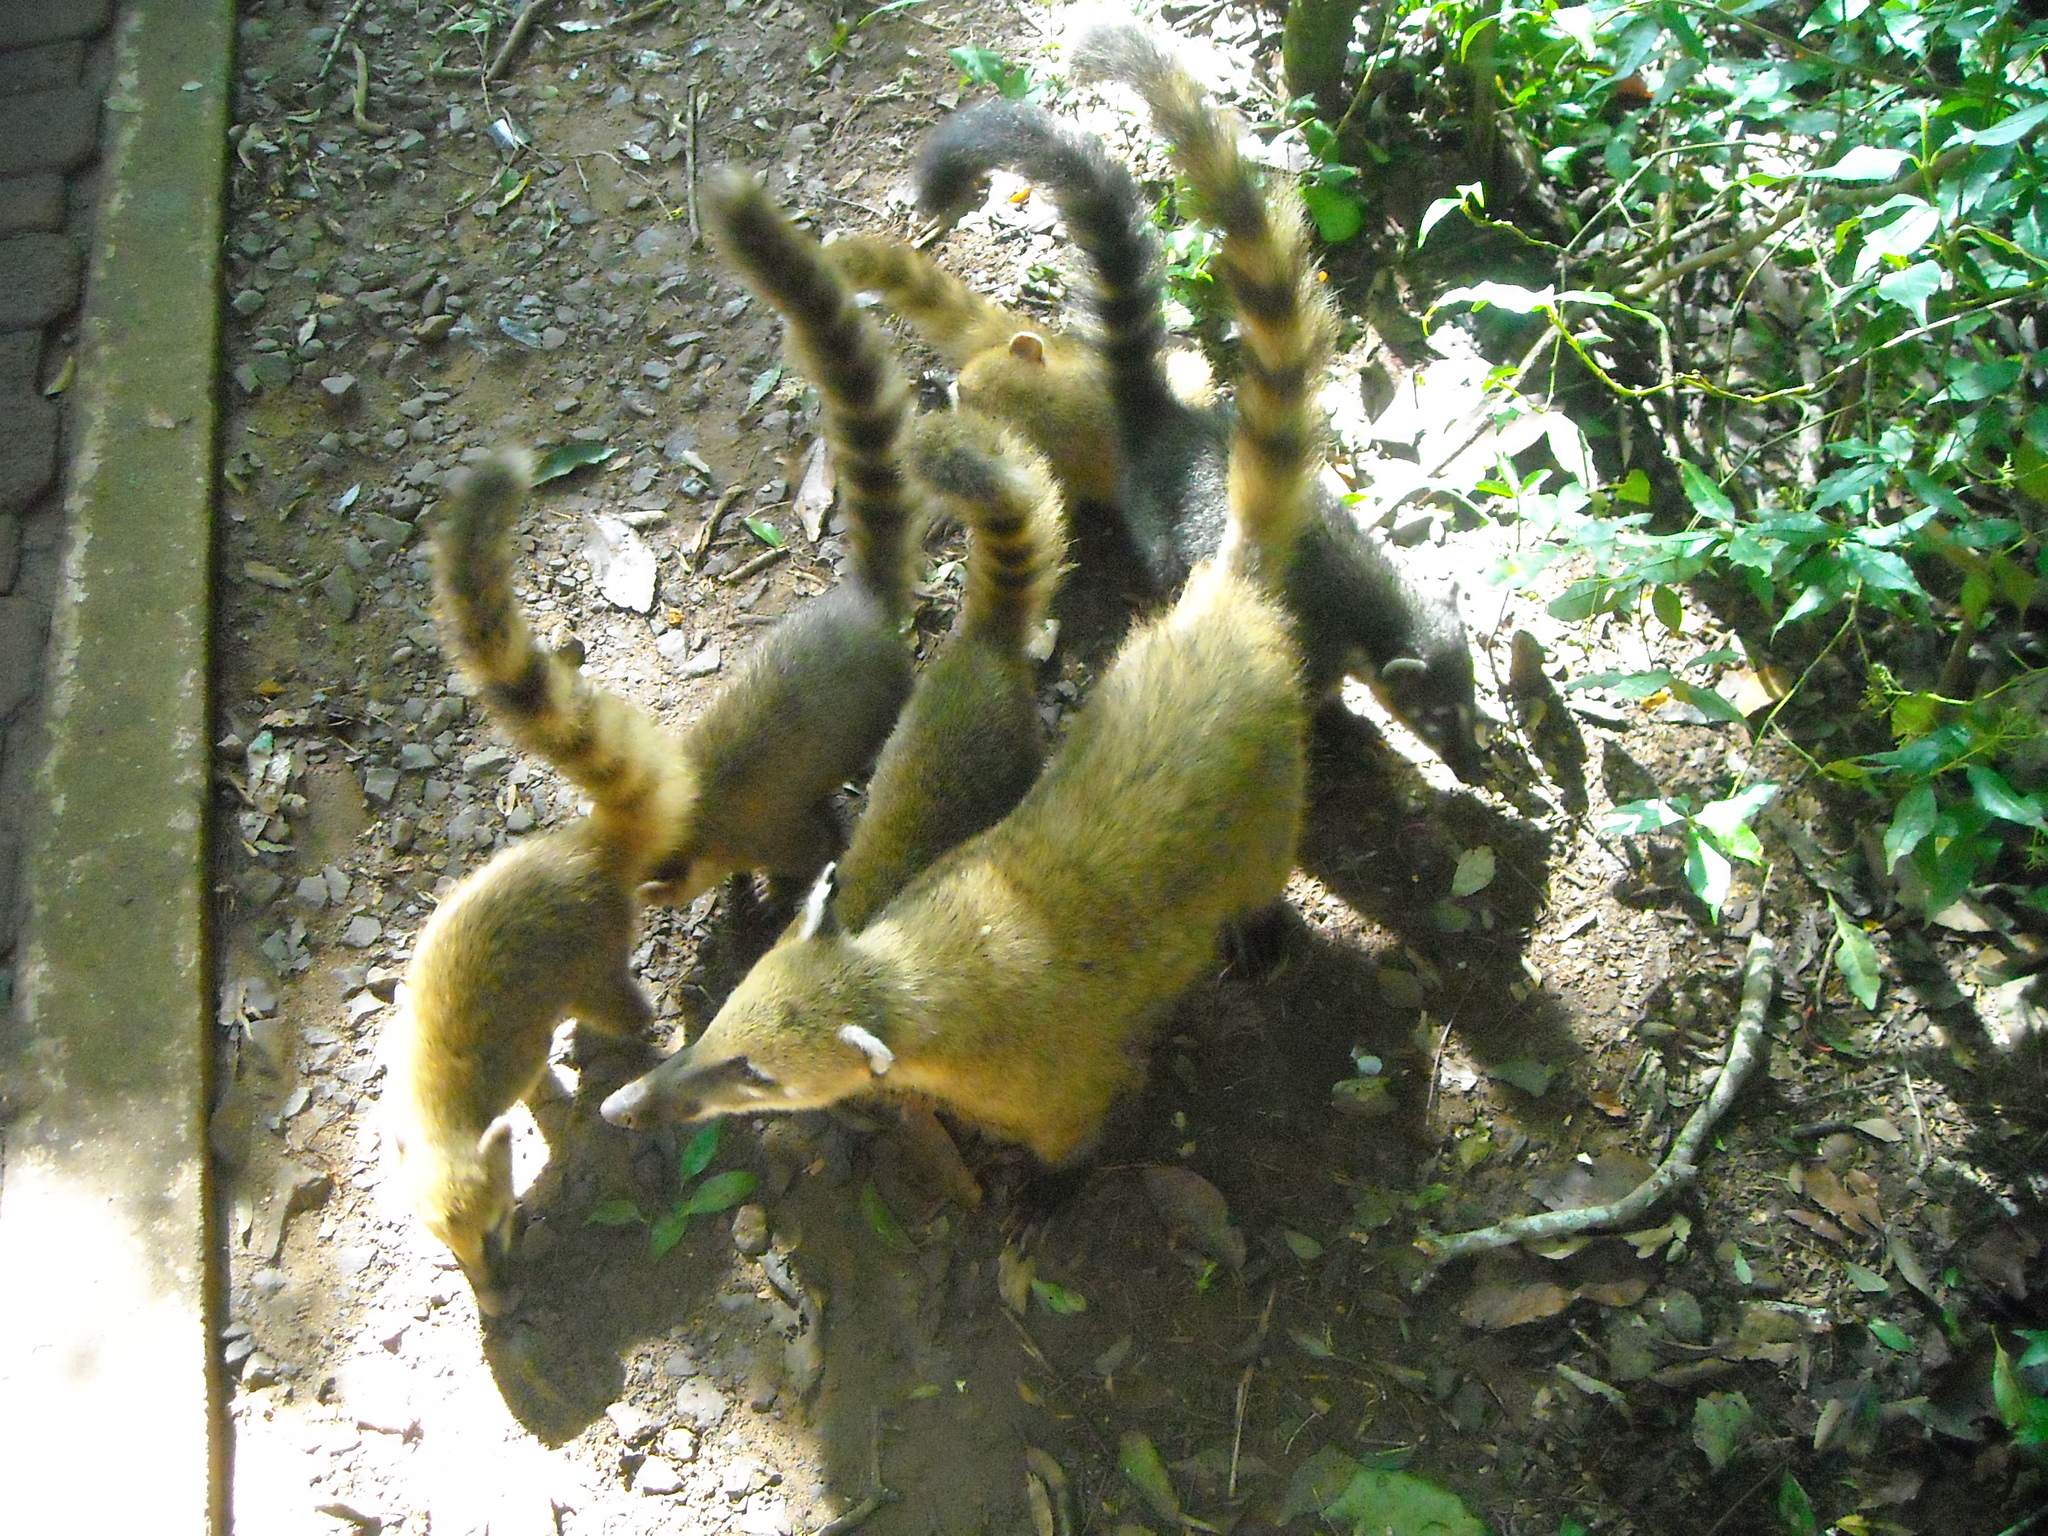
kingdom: Animalia
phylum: Chordata
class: Mammalia
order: Carnivora
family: Procyonidae
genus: Nasua
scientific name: Nasua nasua
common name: South american coati
